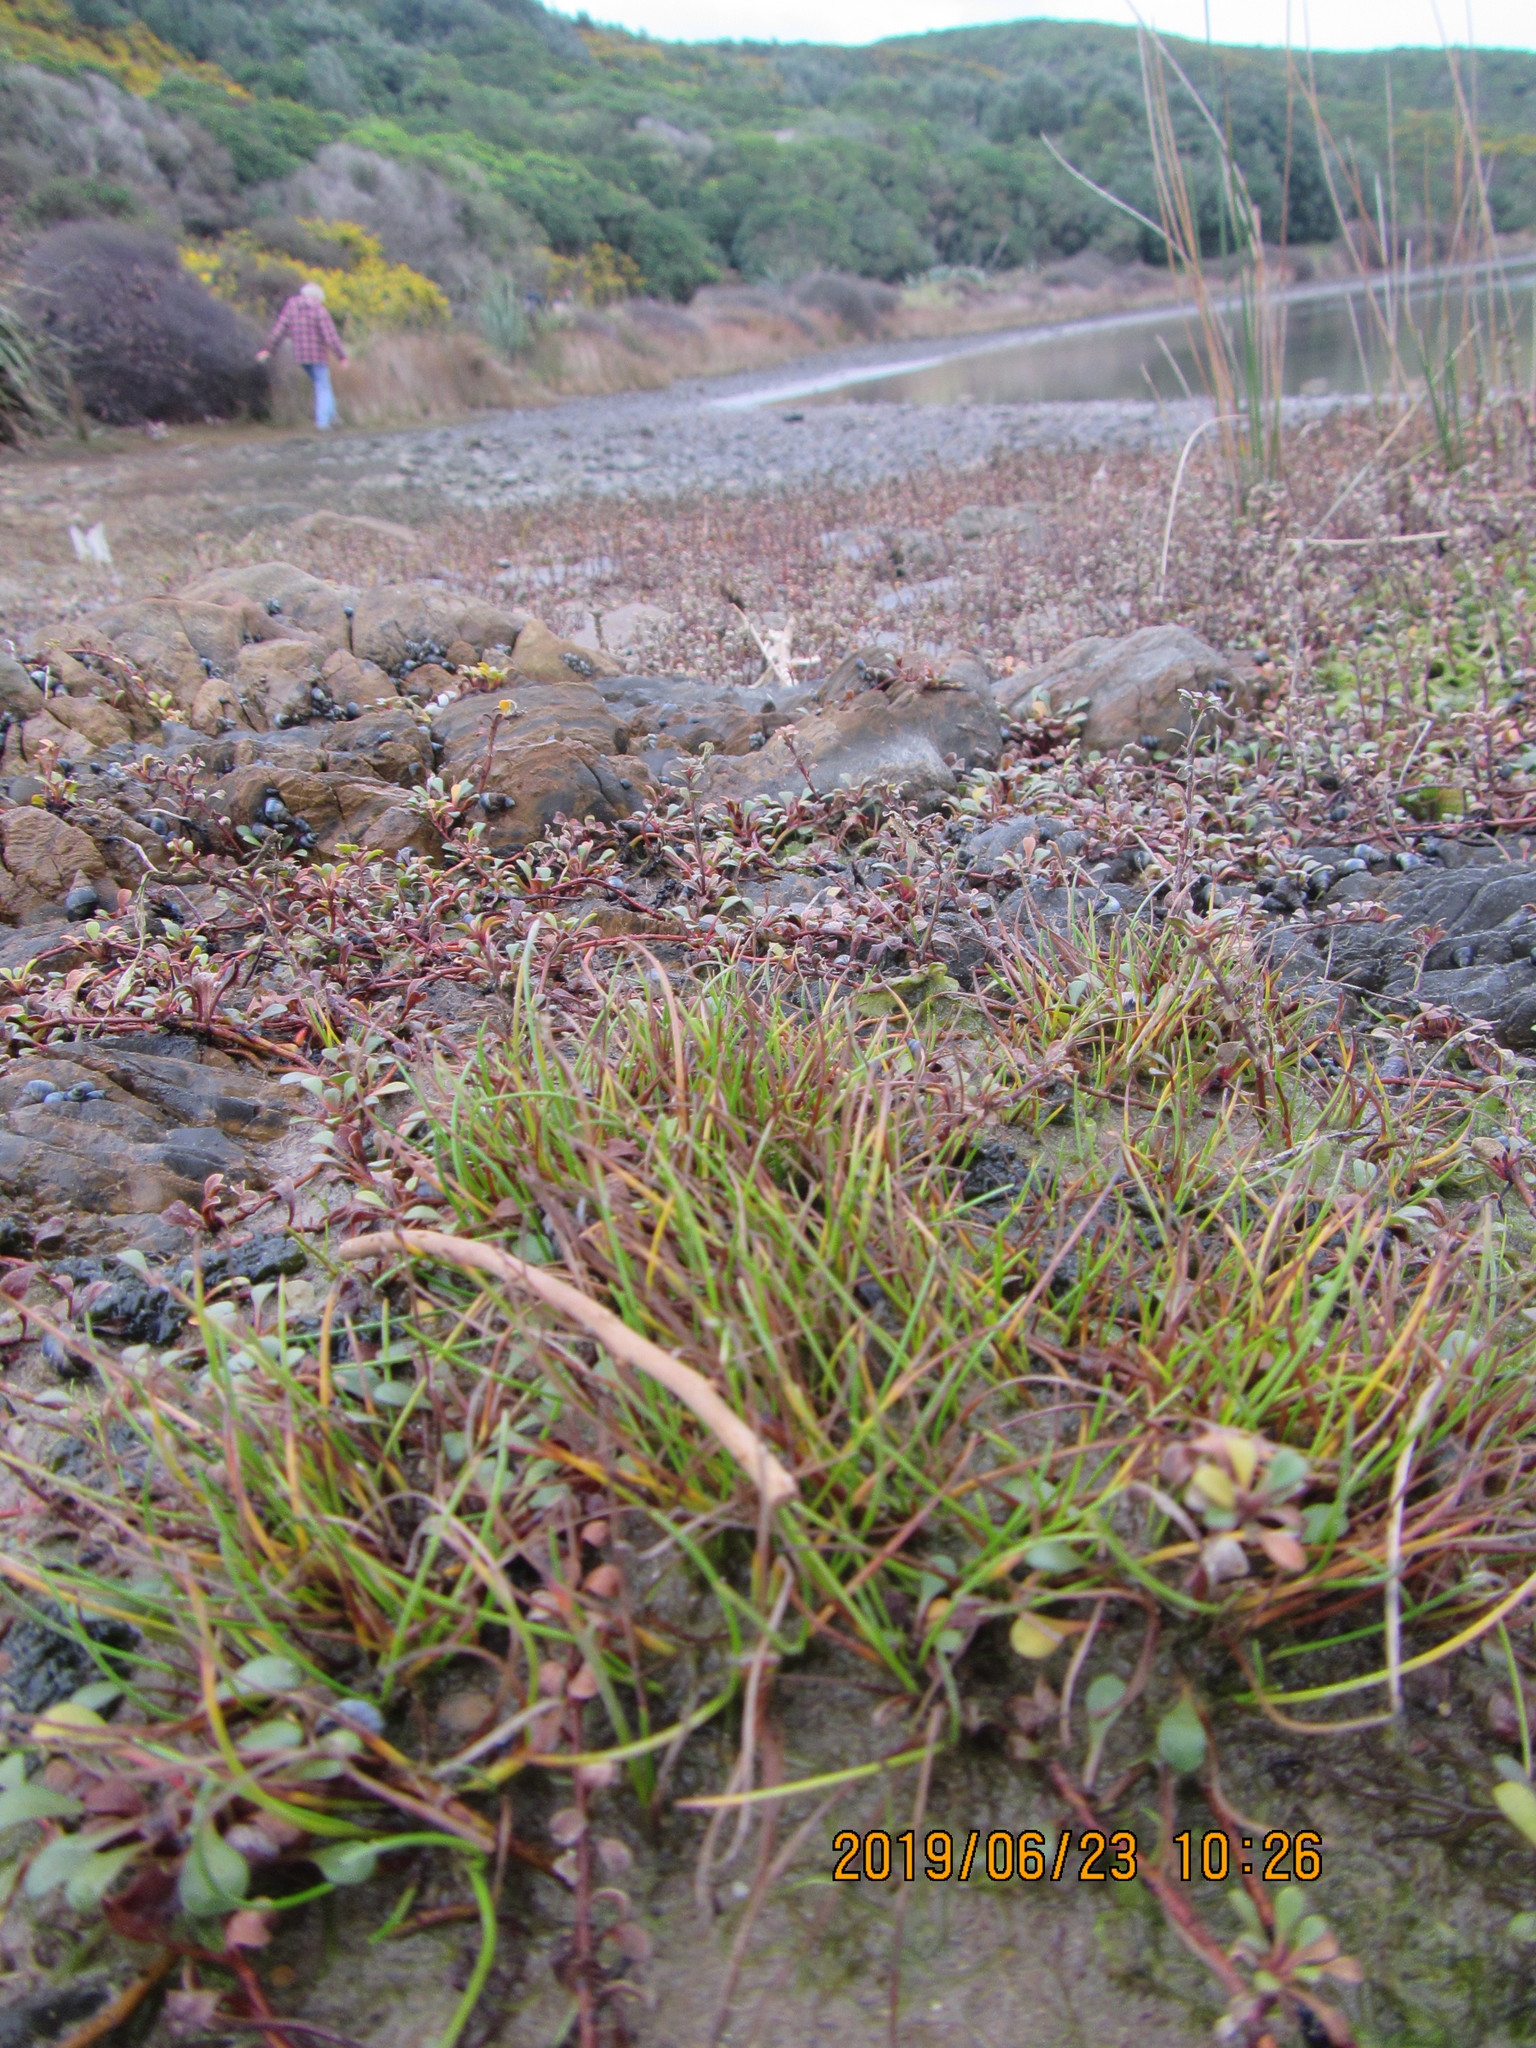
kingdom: Plantae
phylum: Tracheophyta
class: Liliopsida
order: Alismatales
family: Juncaginaceae
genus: Triglochin
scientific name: Triglochin striata
